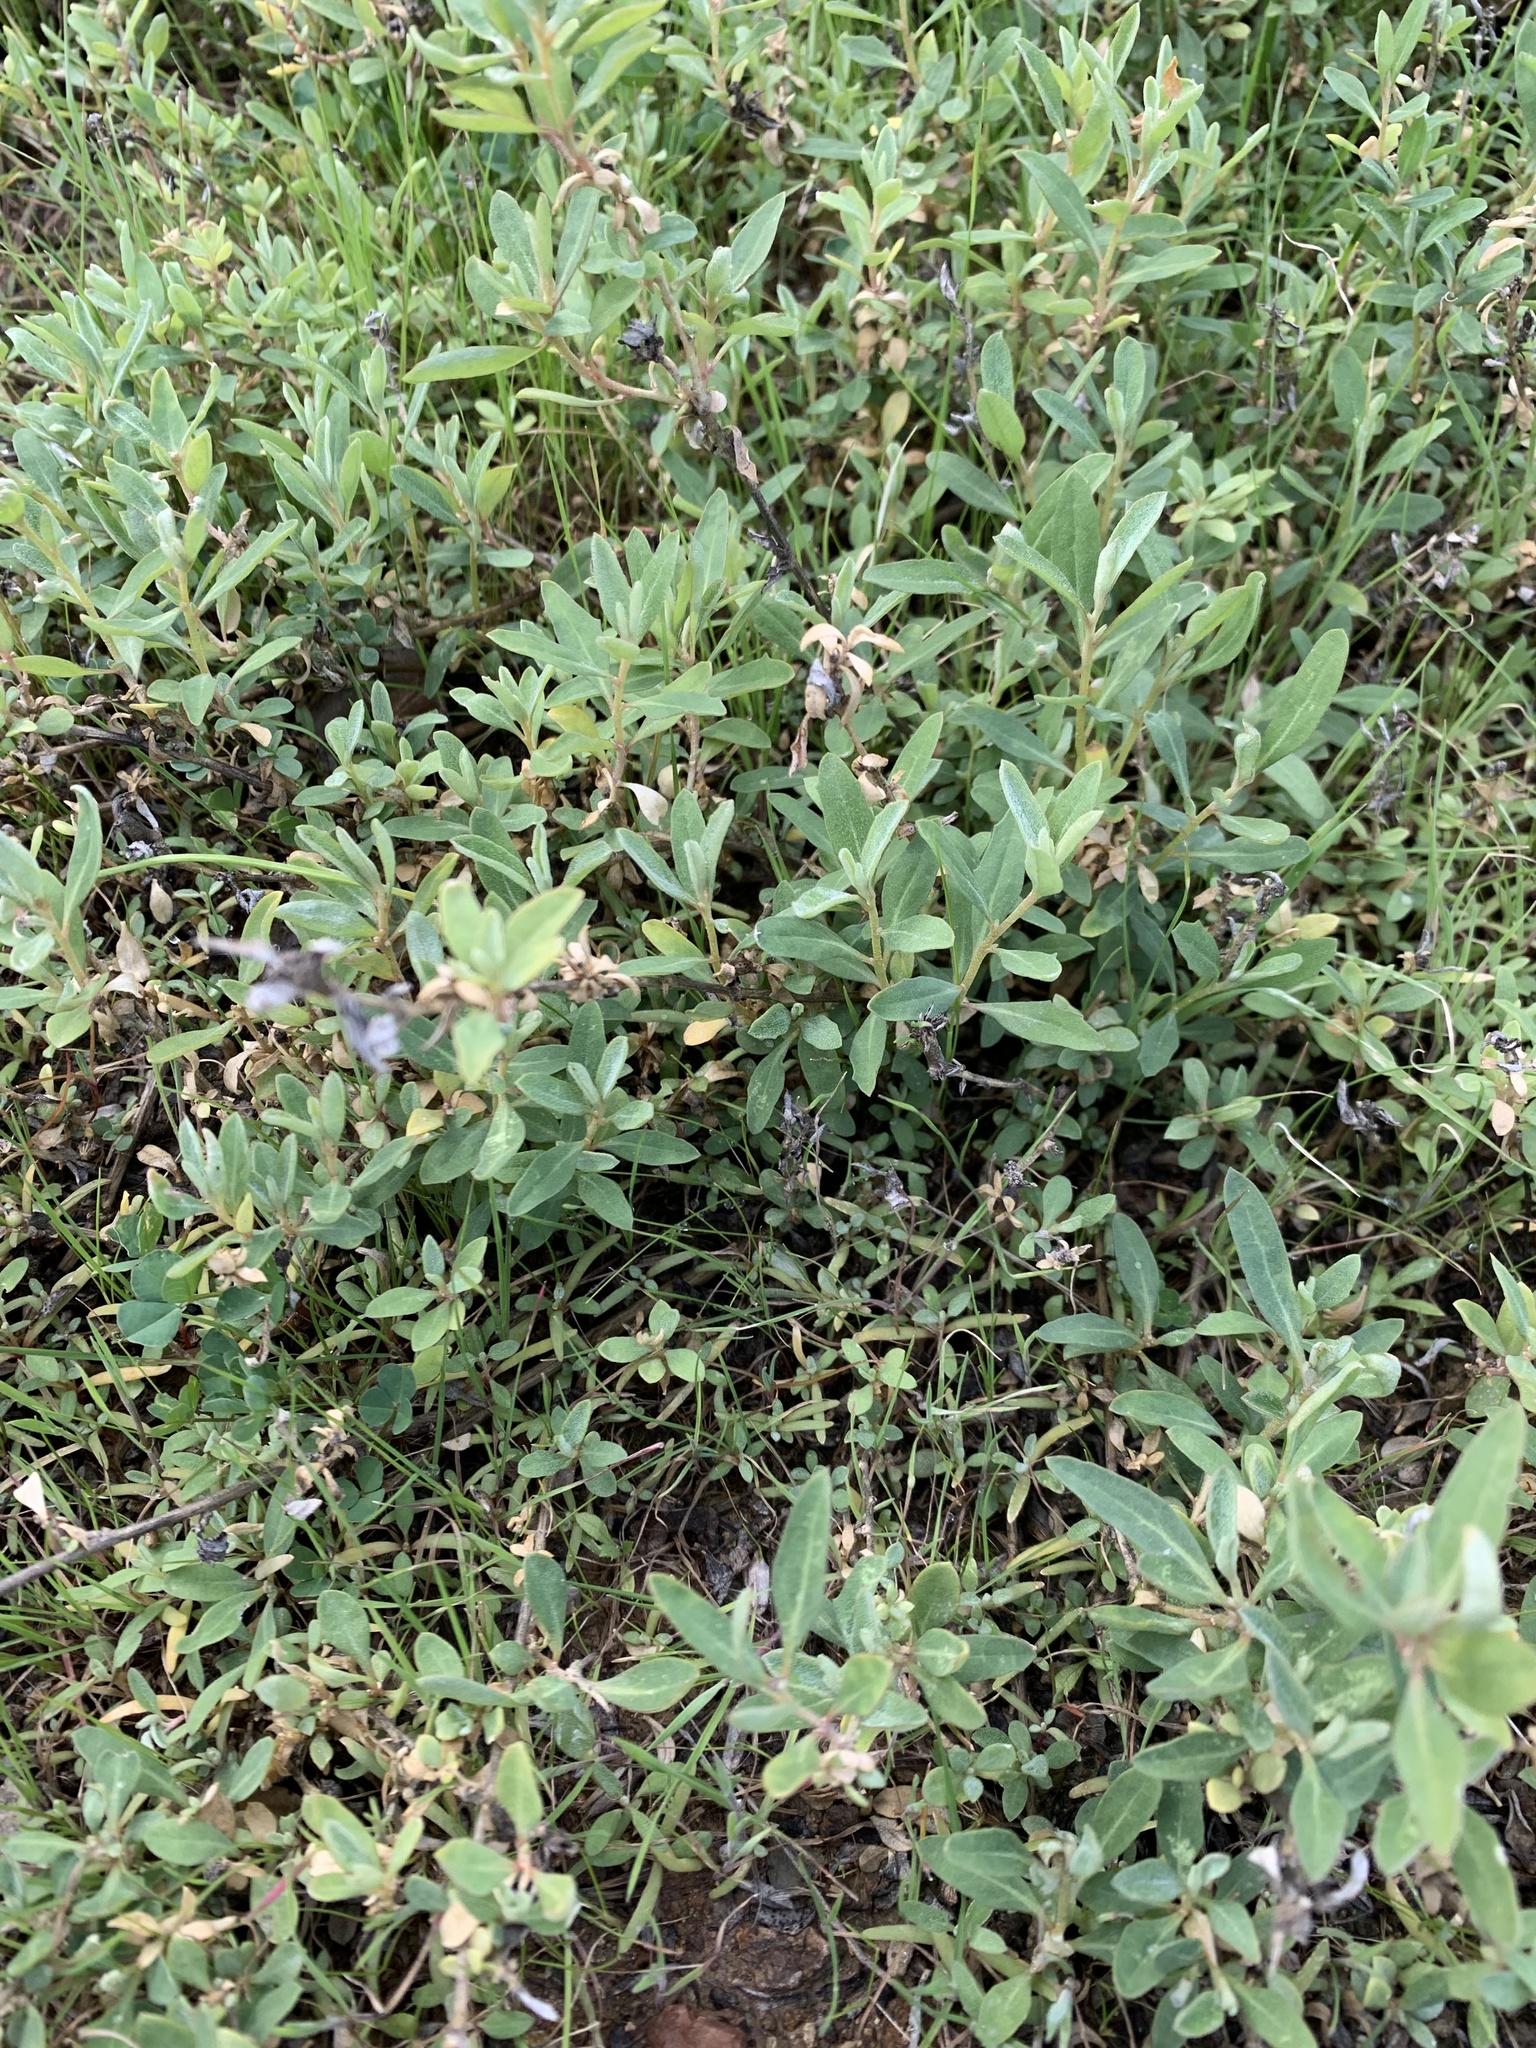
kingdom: Plantae
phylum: Tracheophyta
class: Magnoliopsida
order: Caryophyllales
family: Amaranthaceae
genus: Atriplex
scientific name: Atriplex semibaccata
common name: Australian saltbush
